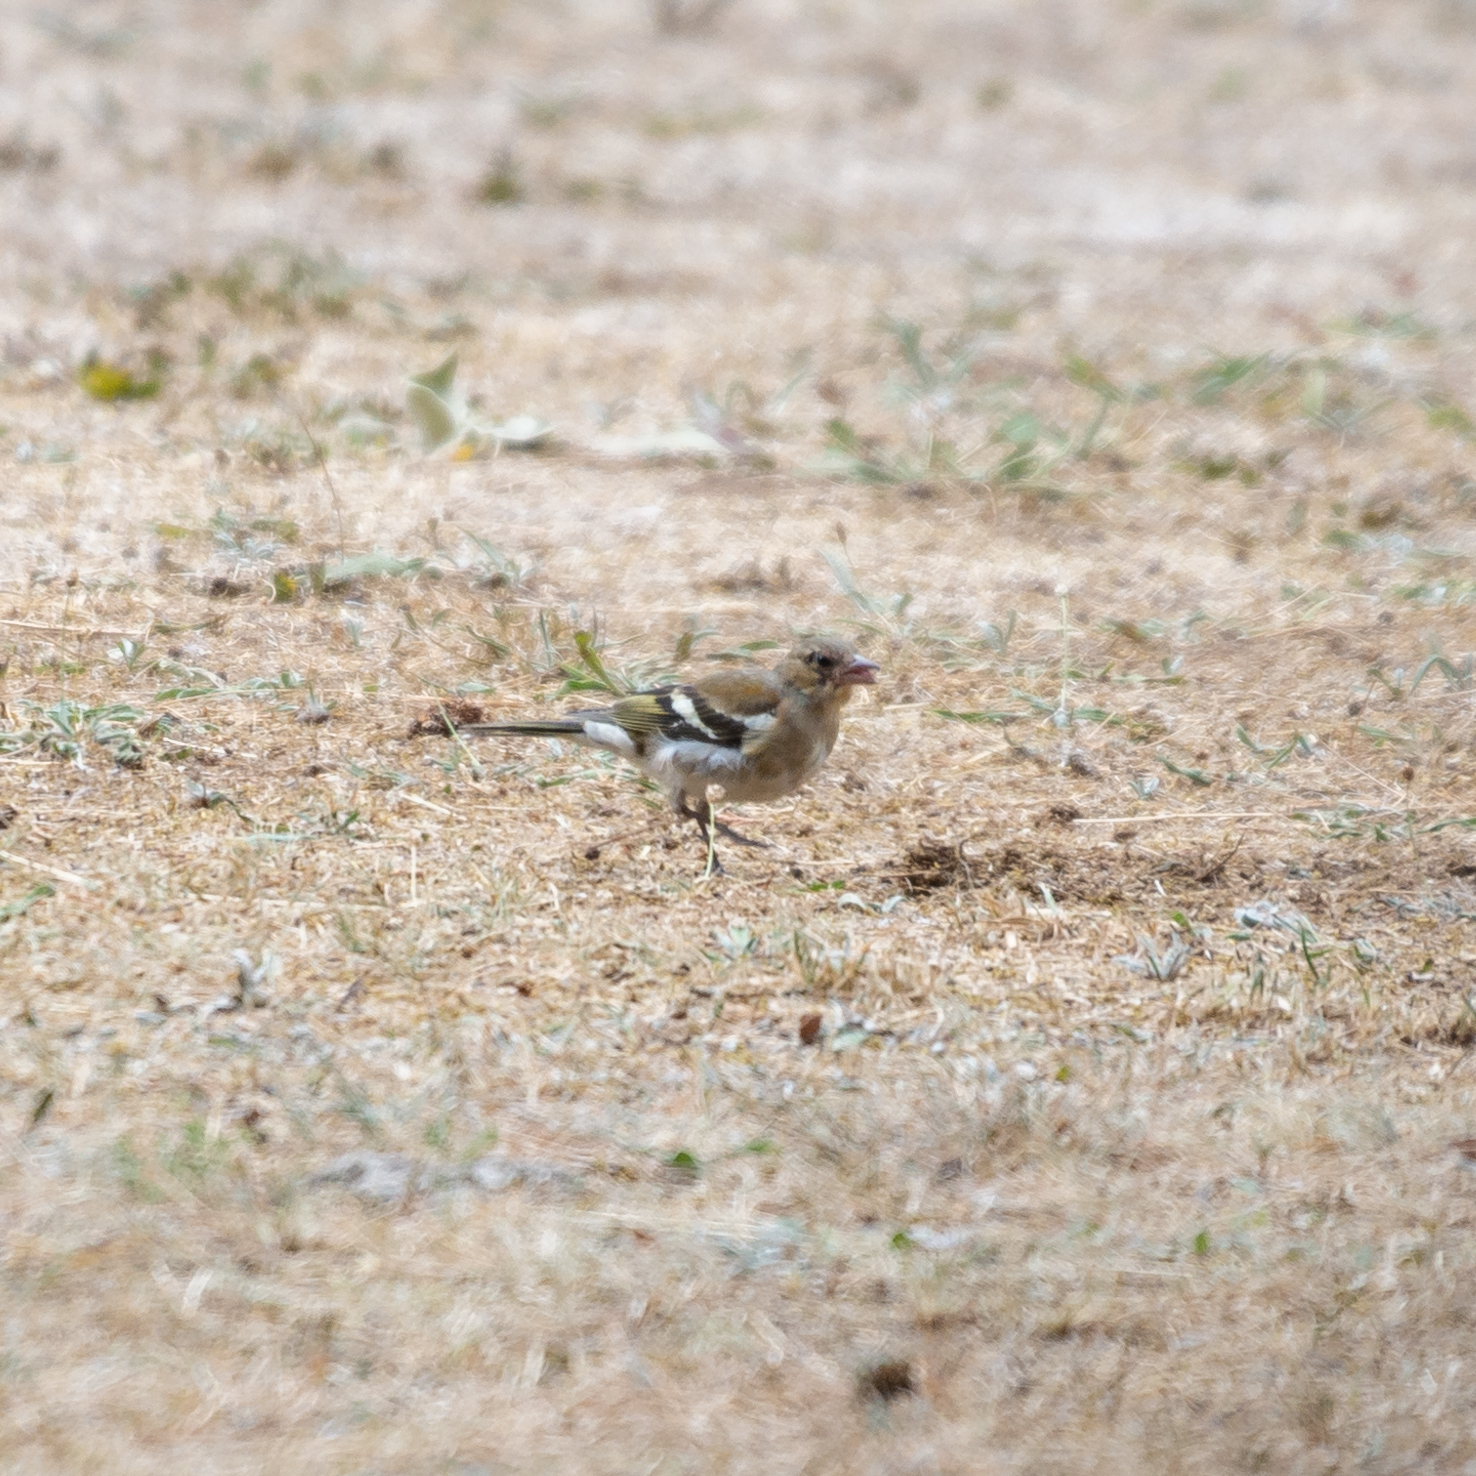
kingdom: Animalia
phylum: Chordata
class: Aves
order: Passeriformes
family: Fringillidae
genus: Fringilla
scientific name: Fringilla coelebs
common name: Common chaffinch
